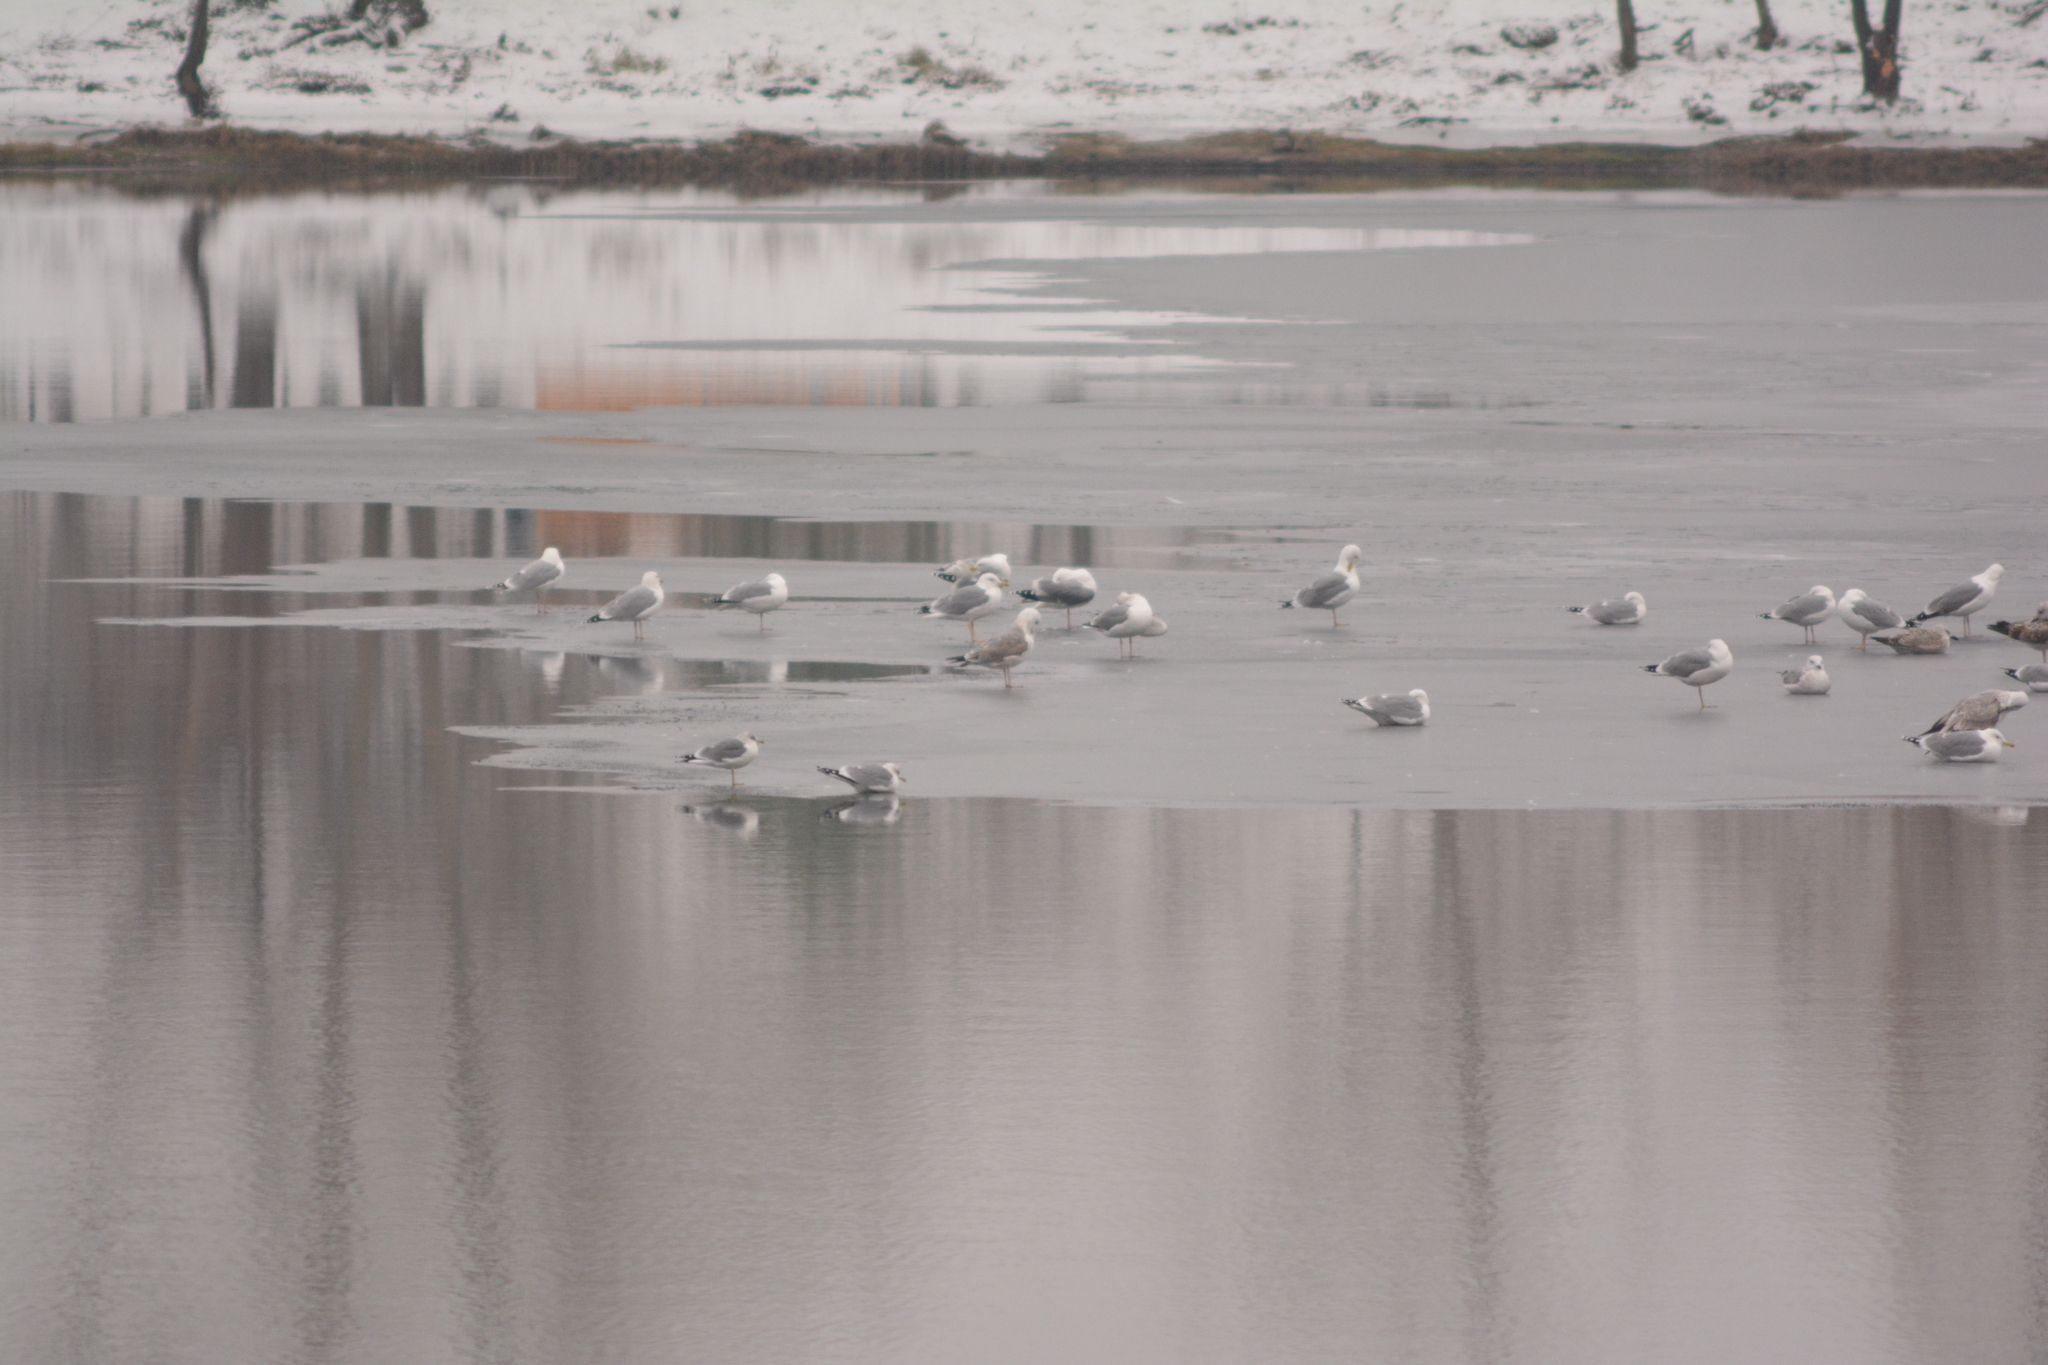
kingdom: Animalia
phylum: Chordata
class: Aves
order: Charadriiformes
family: Laridae
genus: Larus
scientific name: Larus cachinnans
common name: Caspian gull
